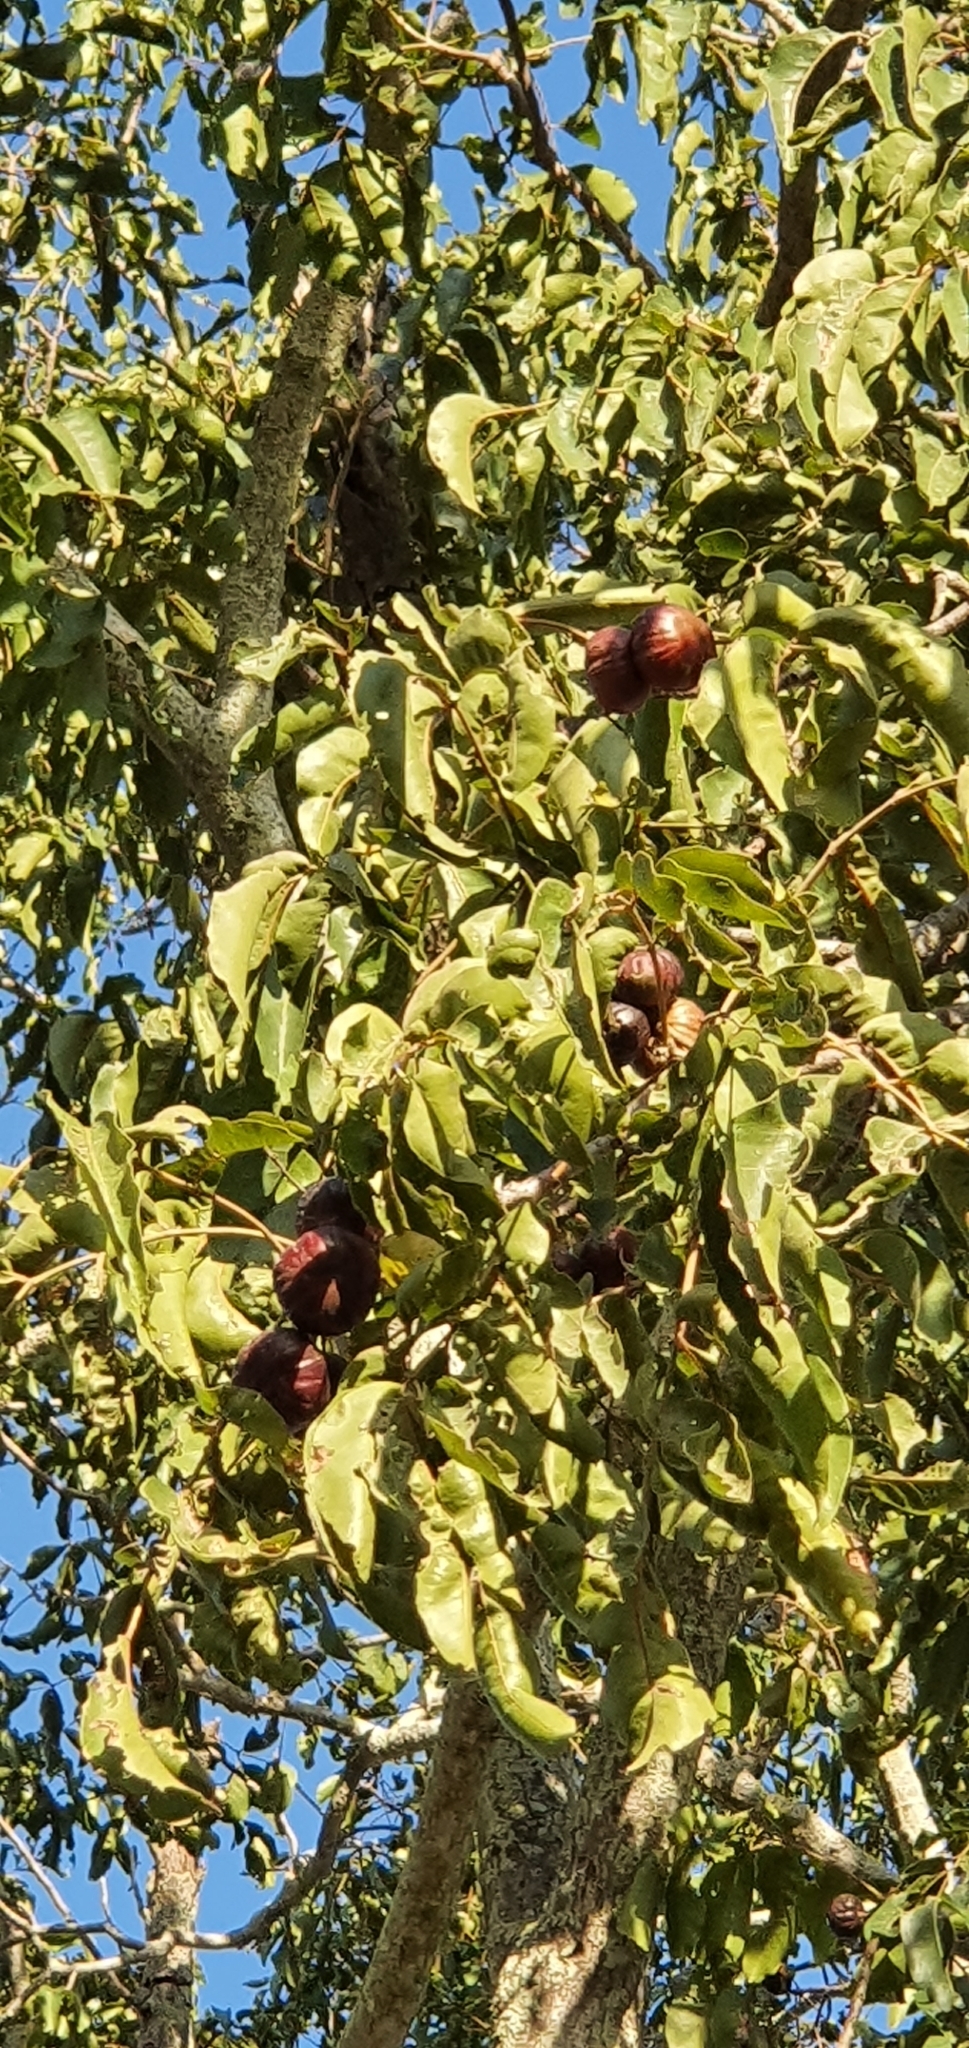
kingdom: Plantae
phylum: Tracheophyta
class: Magnoliopsida
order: Sapindales
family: Anacardiaceae
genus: Pleiogynium
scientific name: Pleiogynium timoriense
